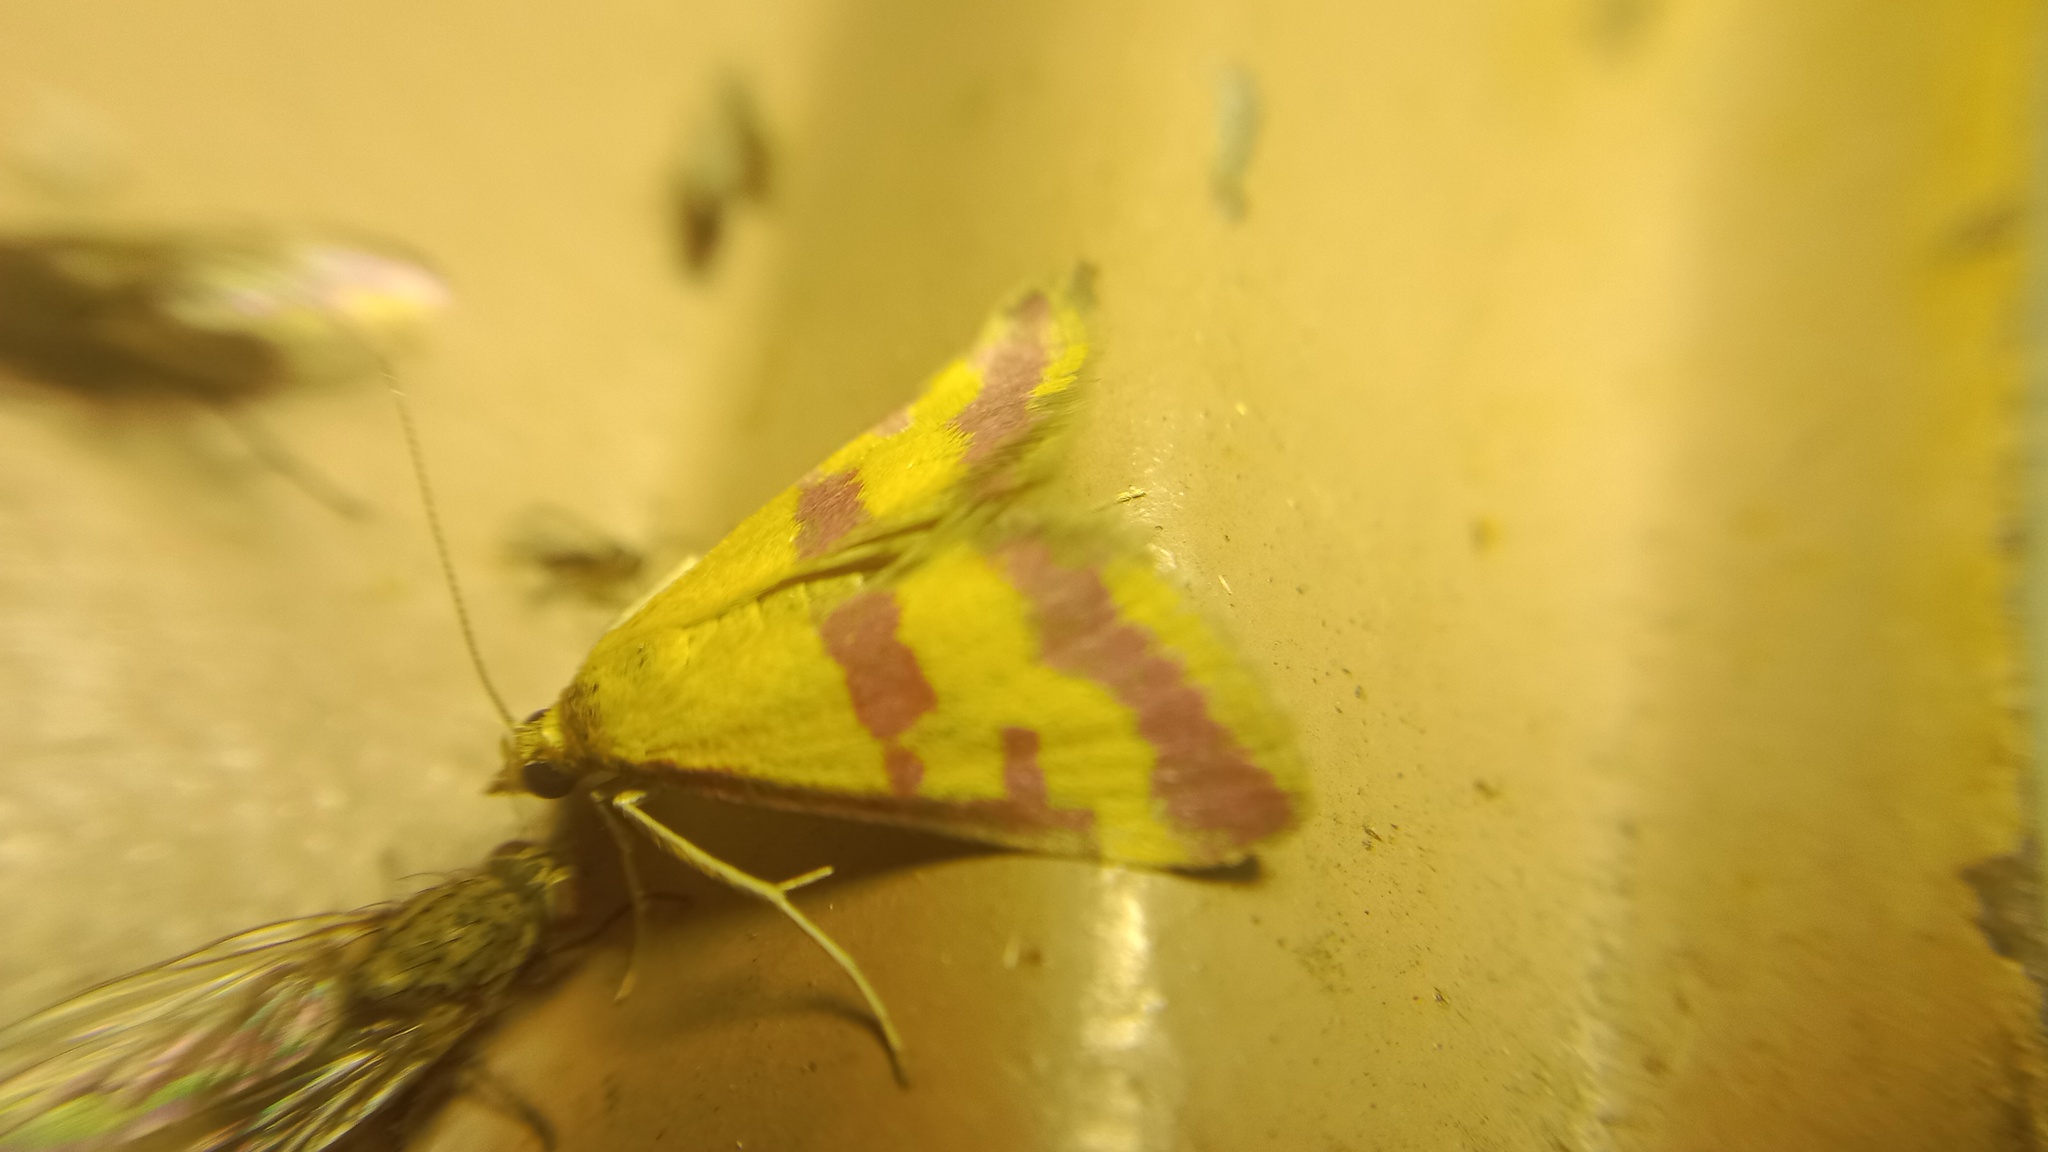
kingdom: Animalia
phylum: Arthropoda
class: Insecta
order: Lepidoptera
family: Crambidae
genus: Pyrausta
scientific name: Pyrausta sanguinalis
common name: Scarce crimson and gold
